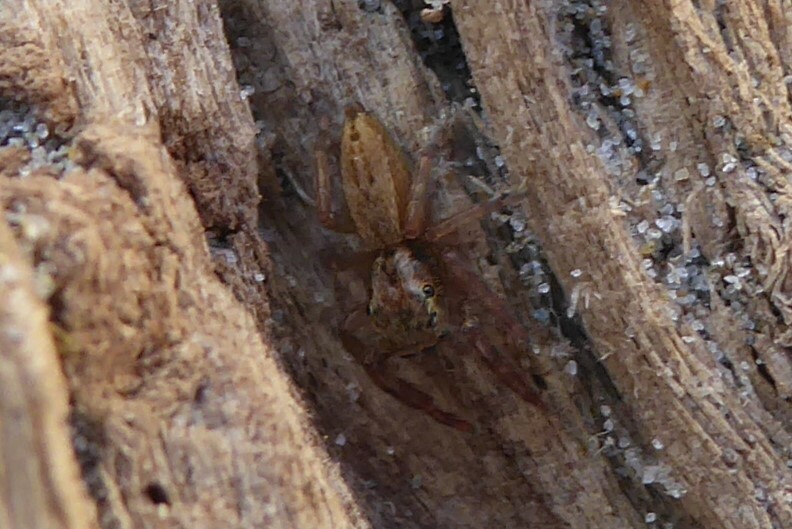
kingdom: Animalia
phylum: Arthropoda
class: Arachnida
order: Araneae
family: Salticidae
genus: Trite
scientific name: Trite auricoma
